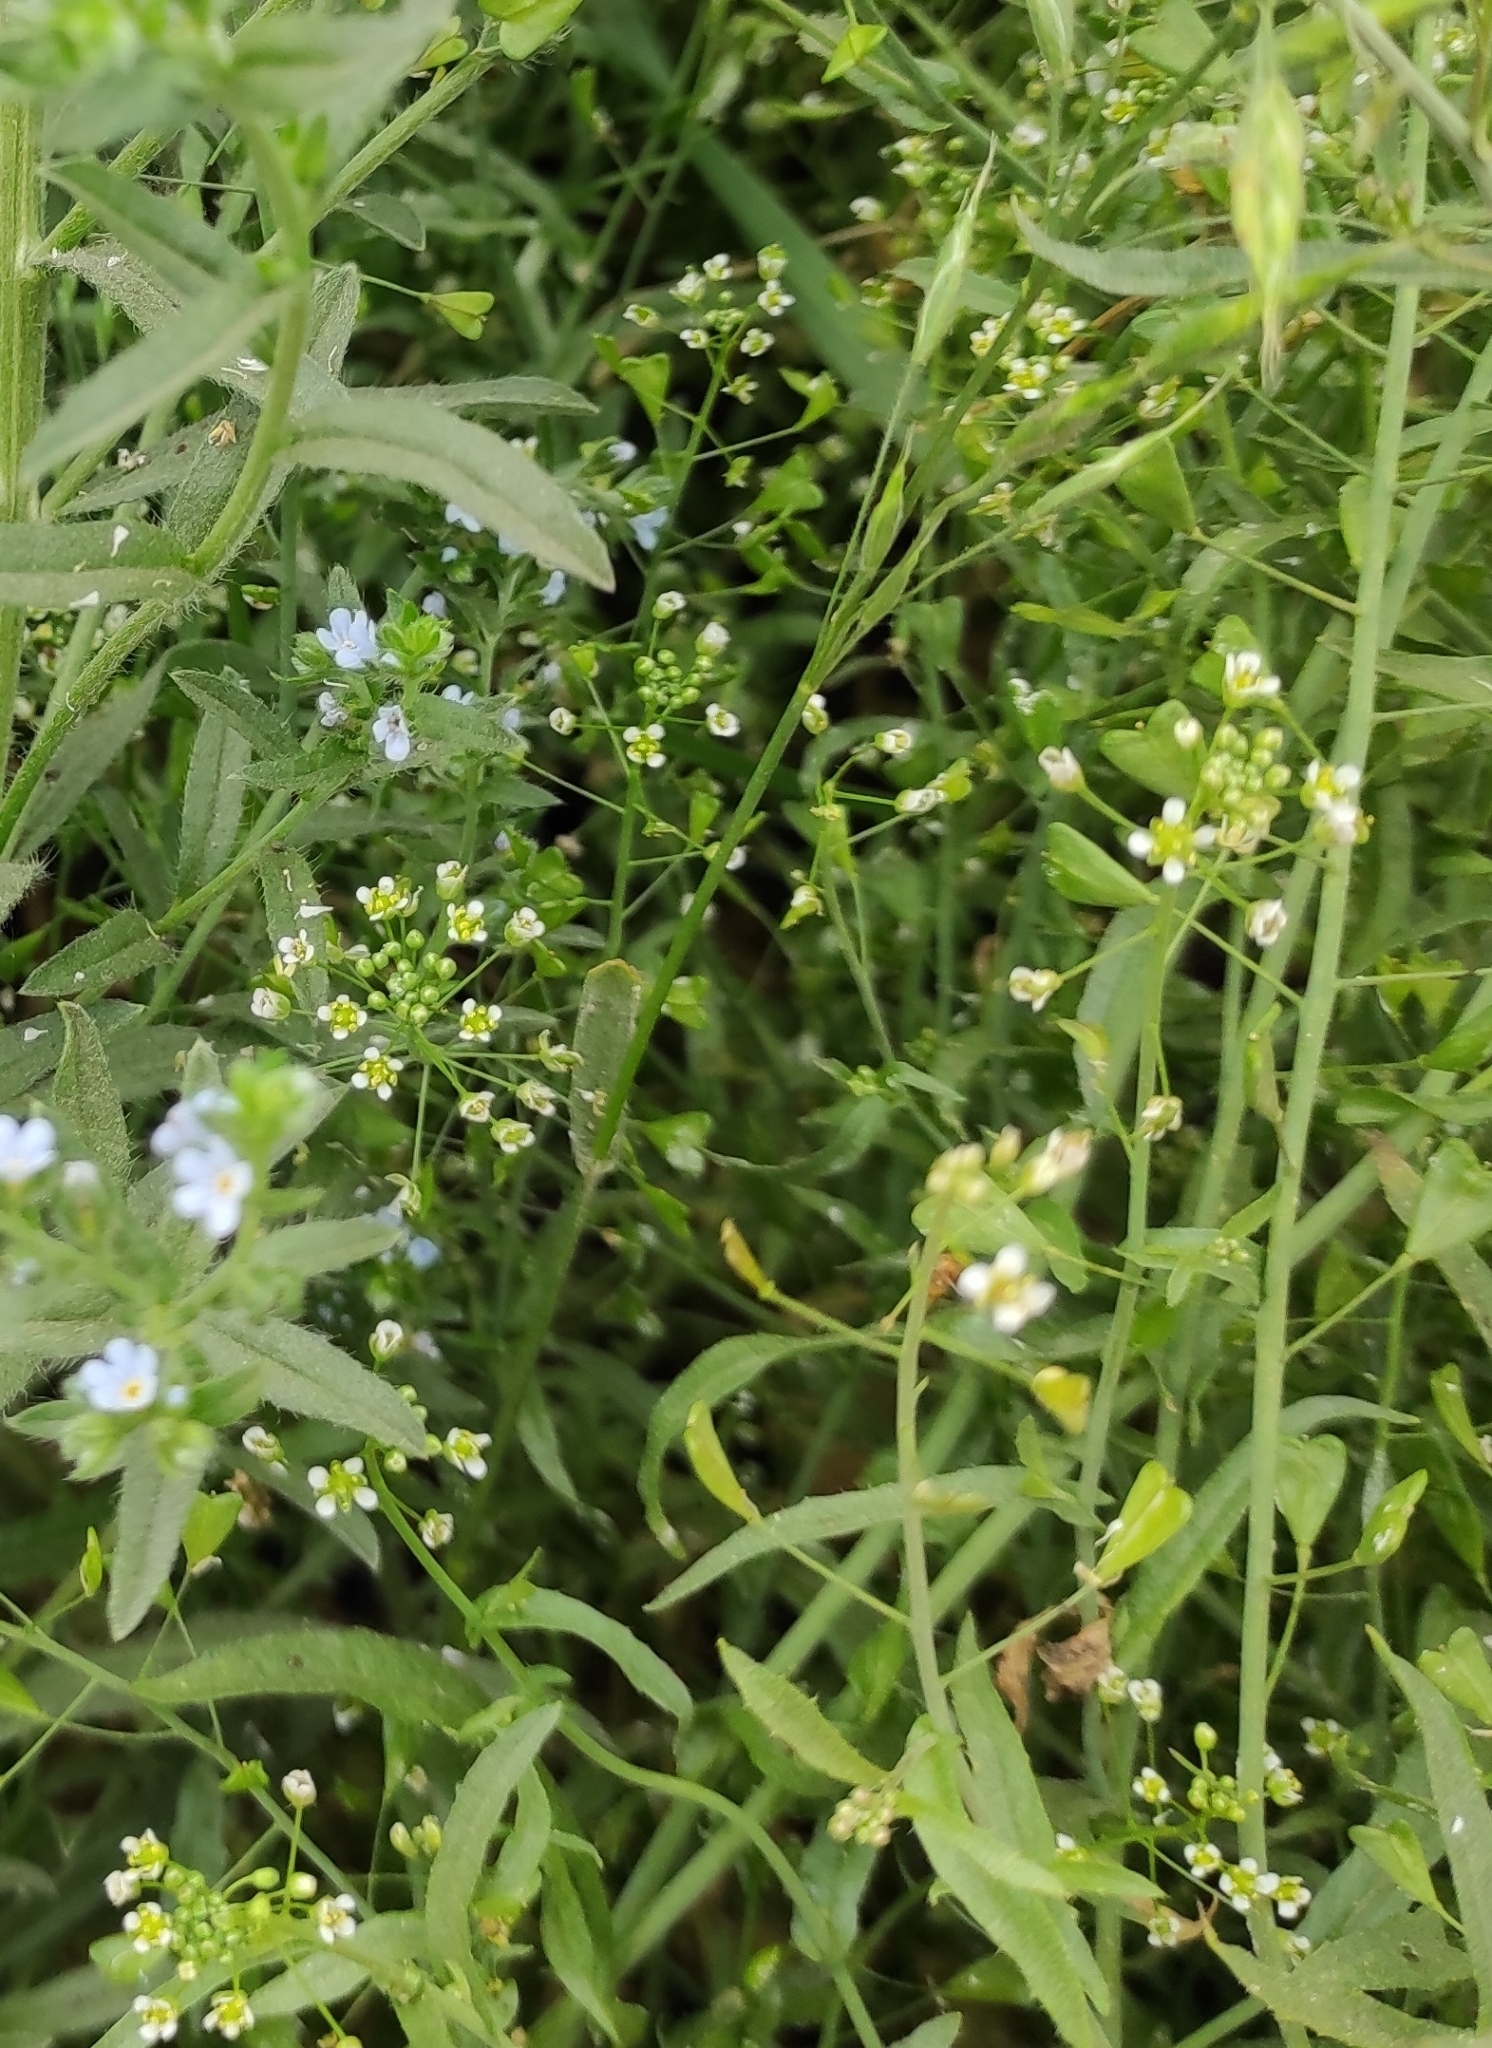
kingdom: Plantae
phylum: Tracheophyta
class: Magnoliopsida
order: Brassicales
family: Brassicaceae
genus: Capsella
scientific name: Capsella bursa-pastoris
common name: Shepherd's purse
